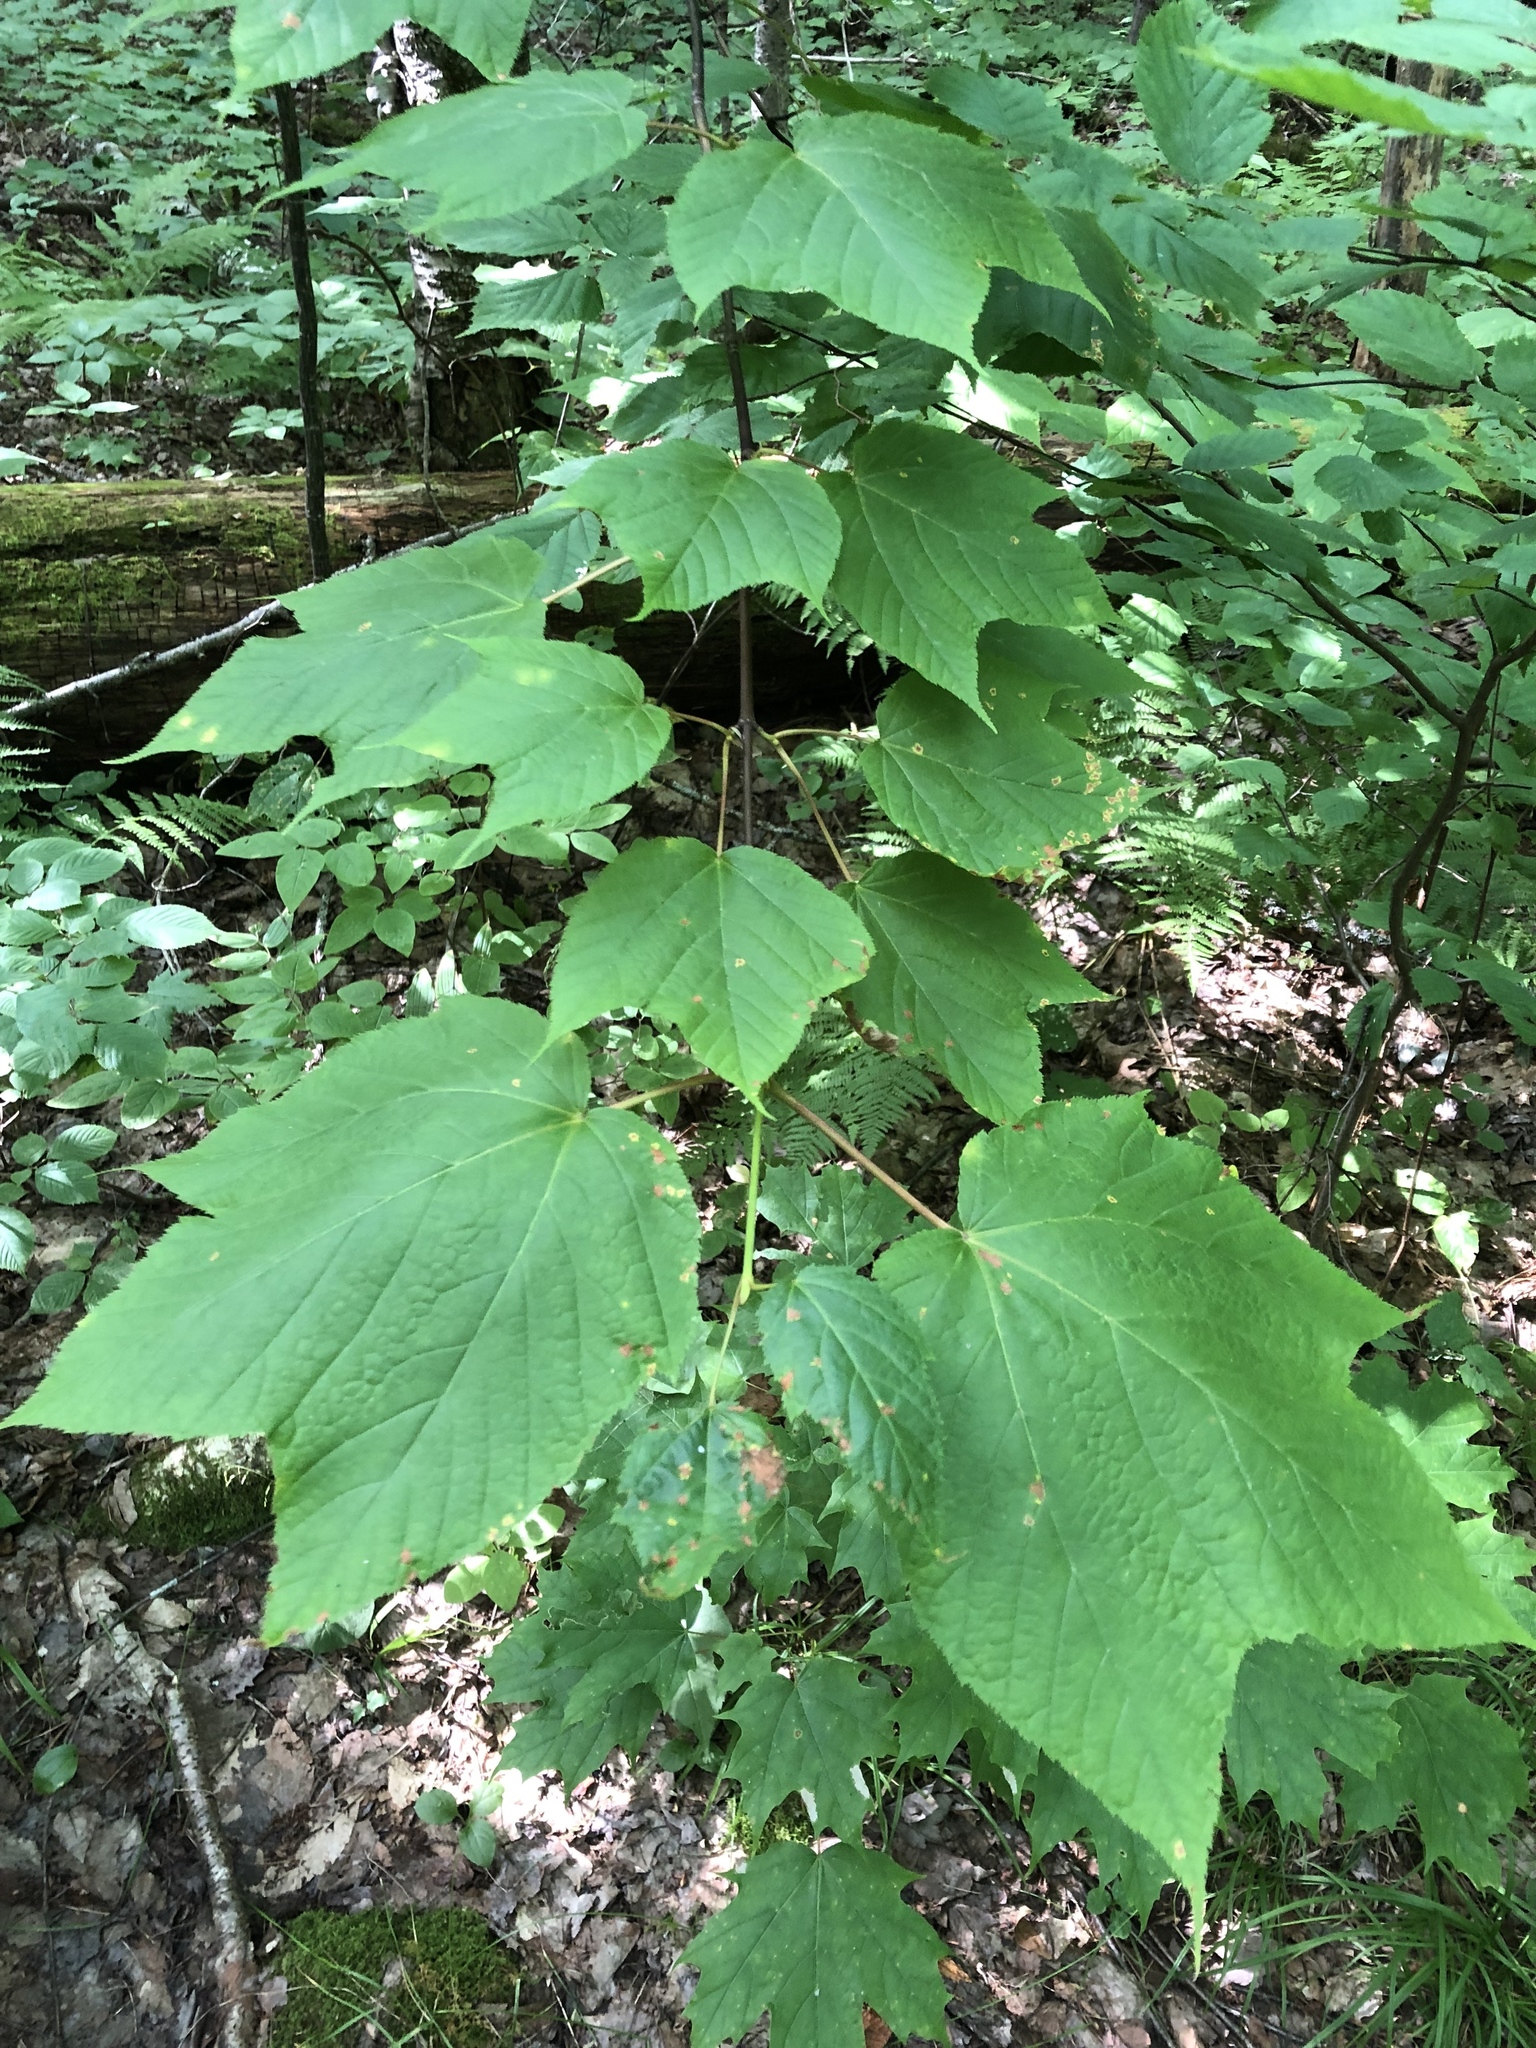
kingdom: Plantae
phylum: Tracheophyta
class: Magnoliopsida
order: Sapindales
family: Sapindaceae
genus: Acer
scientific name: Acer pensylvanicum
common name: Moosewood
